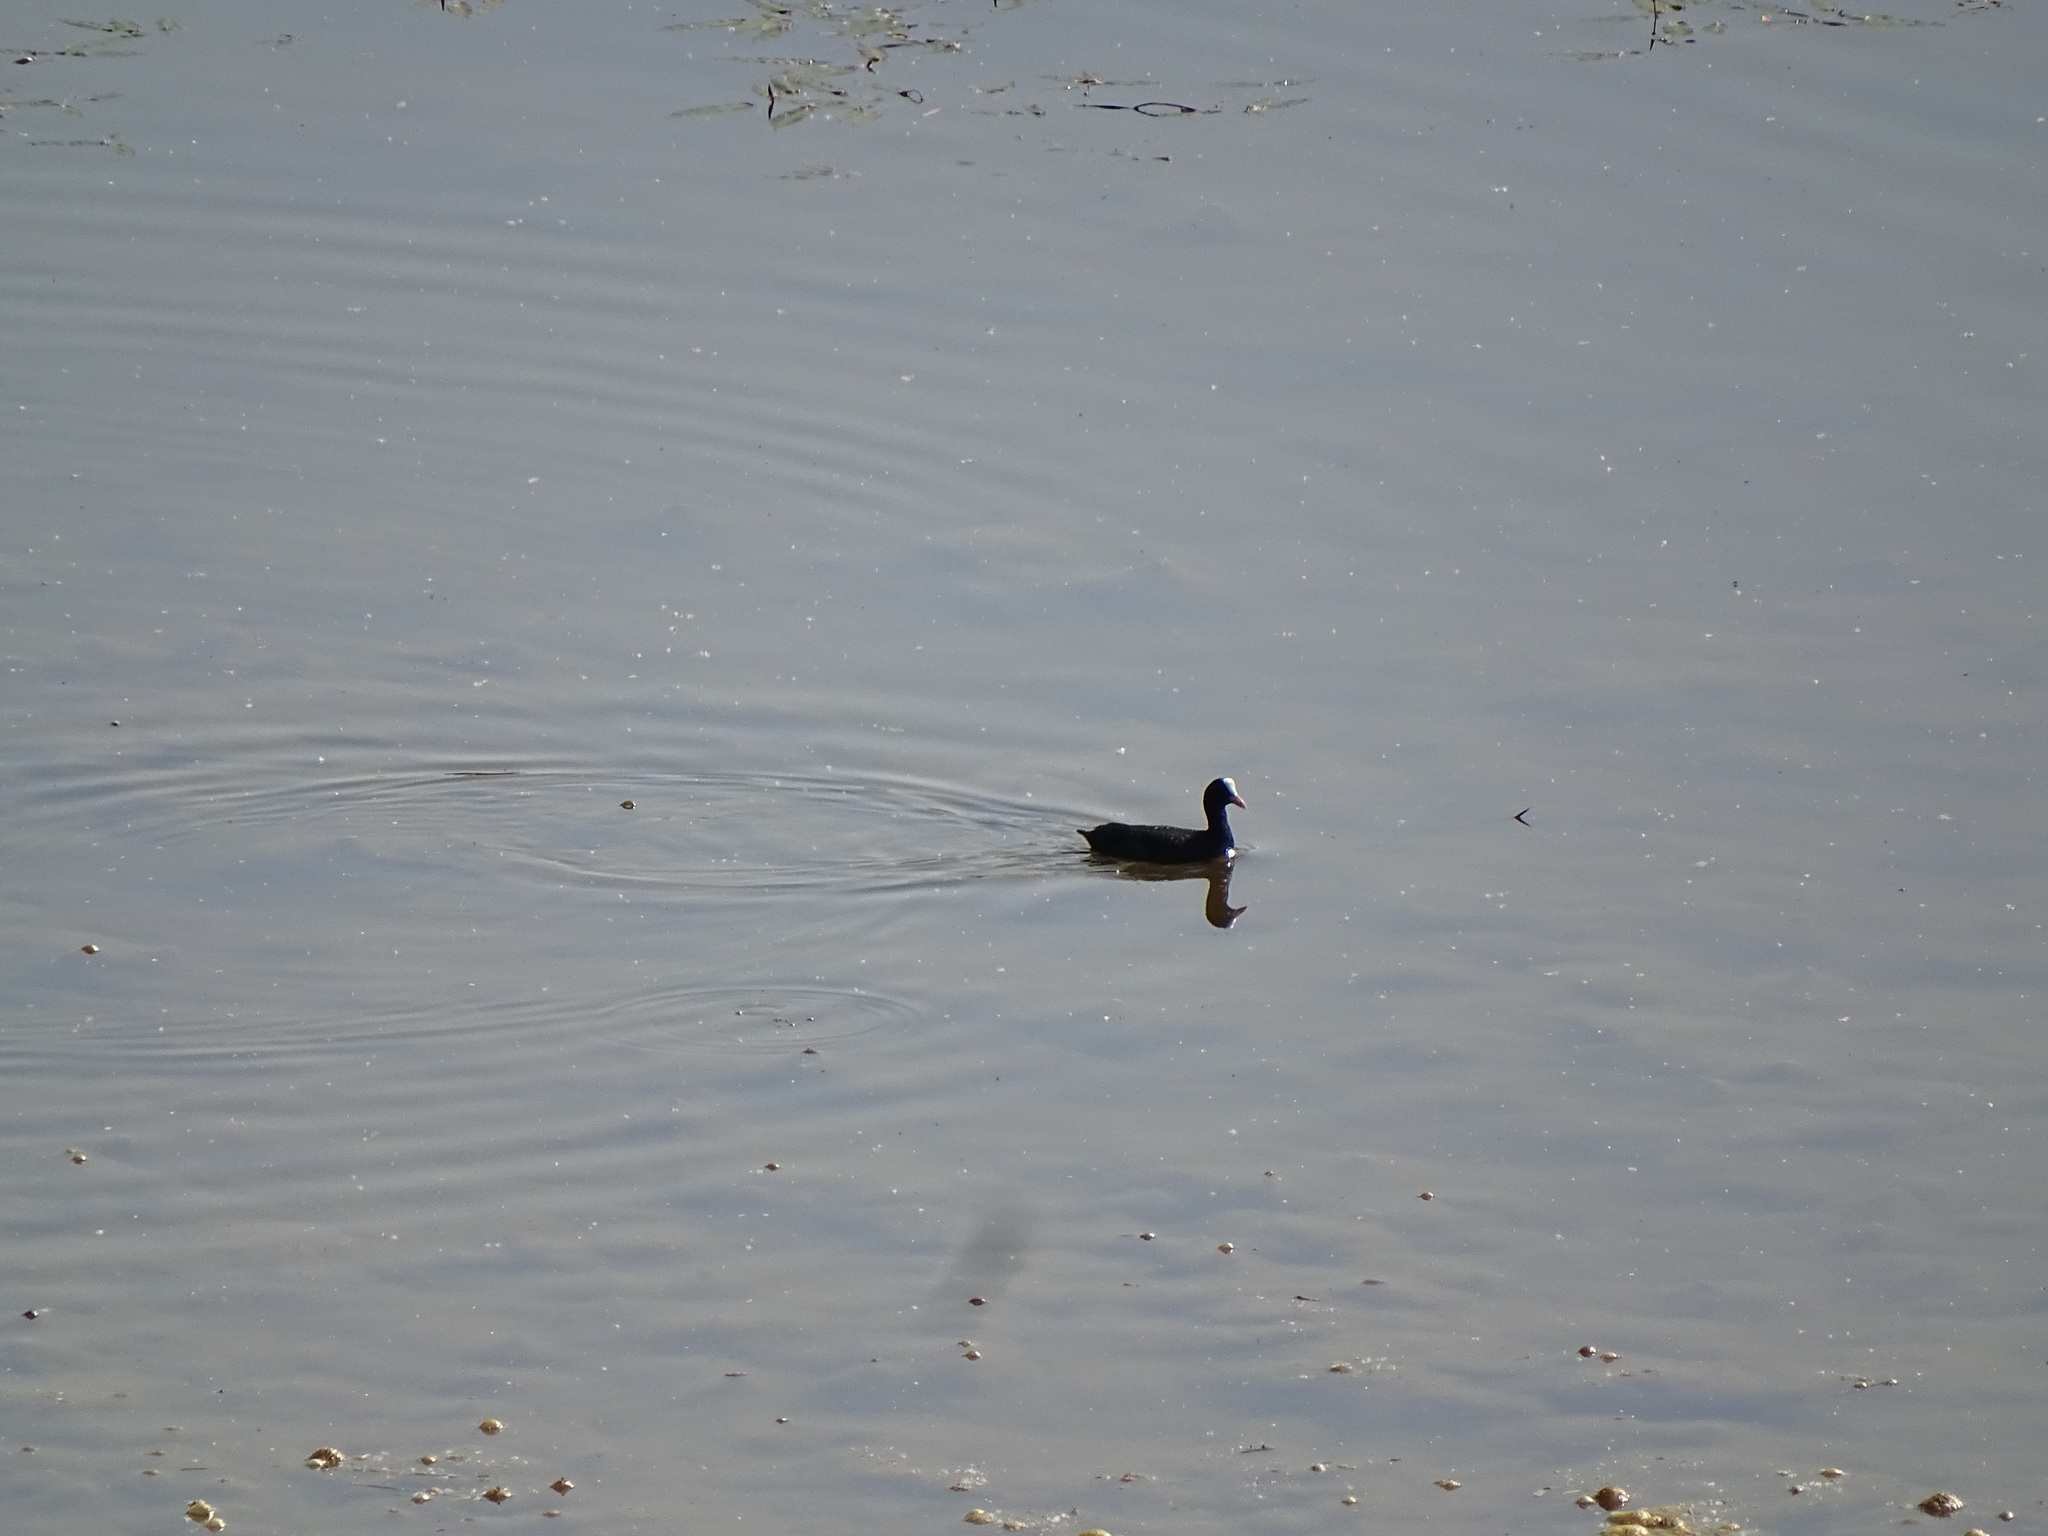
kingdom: Animalia
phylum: Chordata
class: Aves
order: Gruiformes
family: Rallidae
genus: Fulica
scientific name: Fulica atra
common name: Eurasian coot
